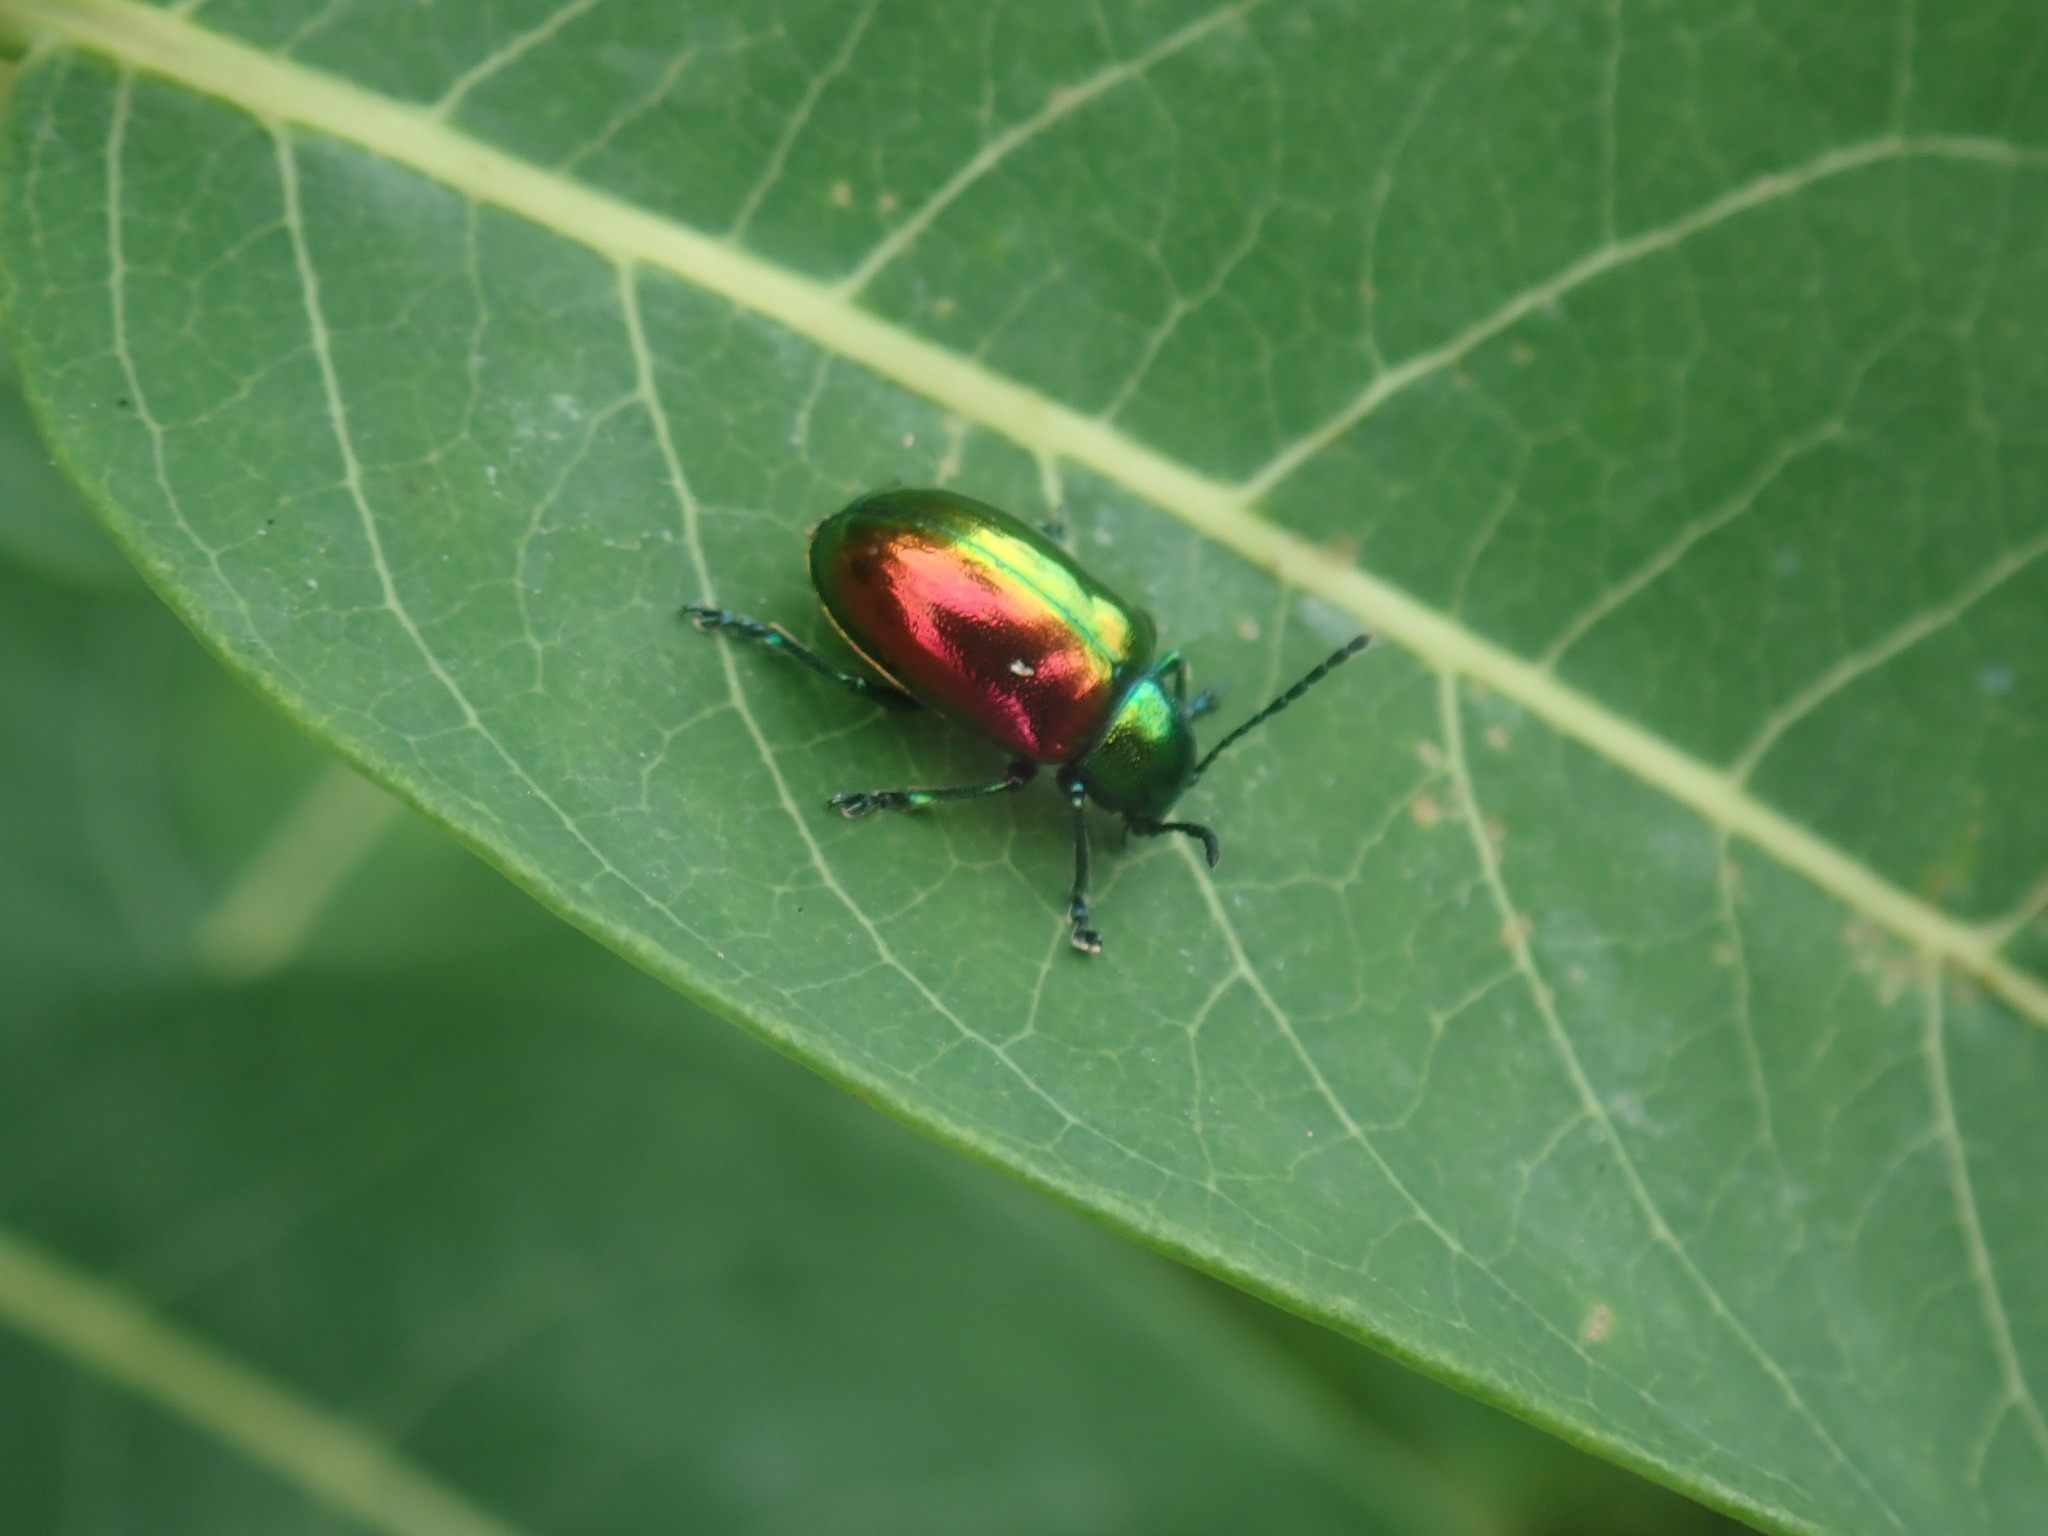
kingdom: Animalia
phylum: Arthropoda
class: Insecta
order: Coleoptera
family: Chrysomelidae
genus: Chrysochus
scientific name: Chrysochus auratus
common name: Dogbane leaf beetle
